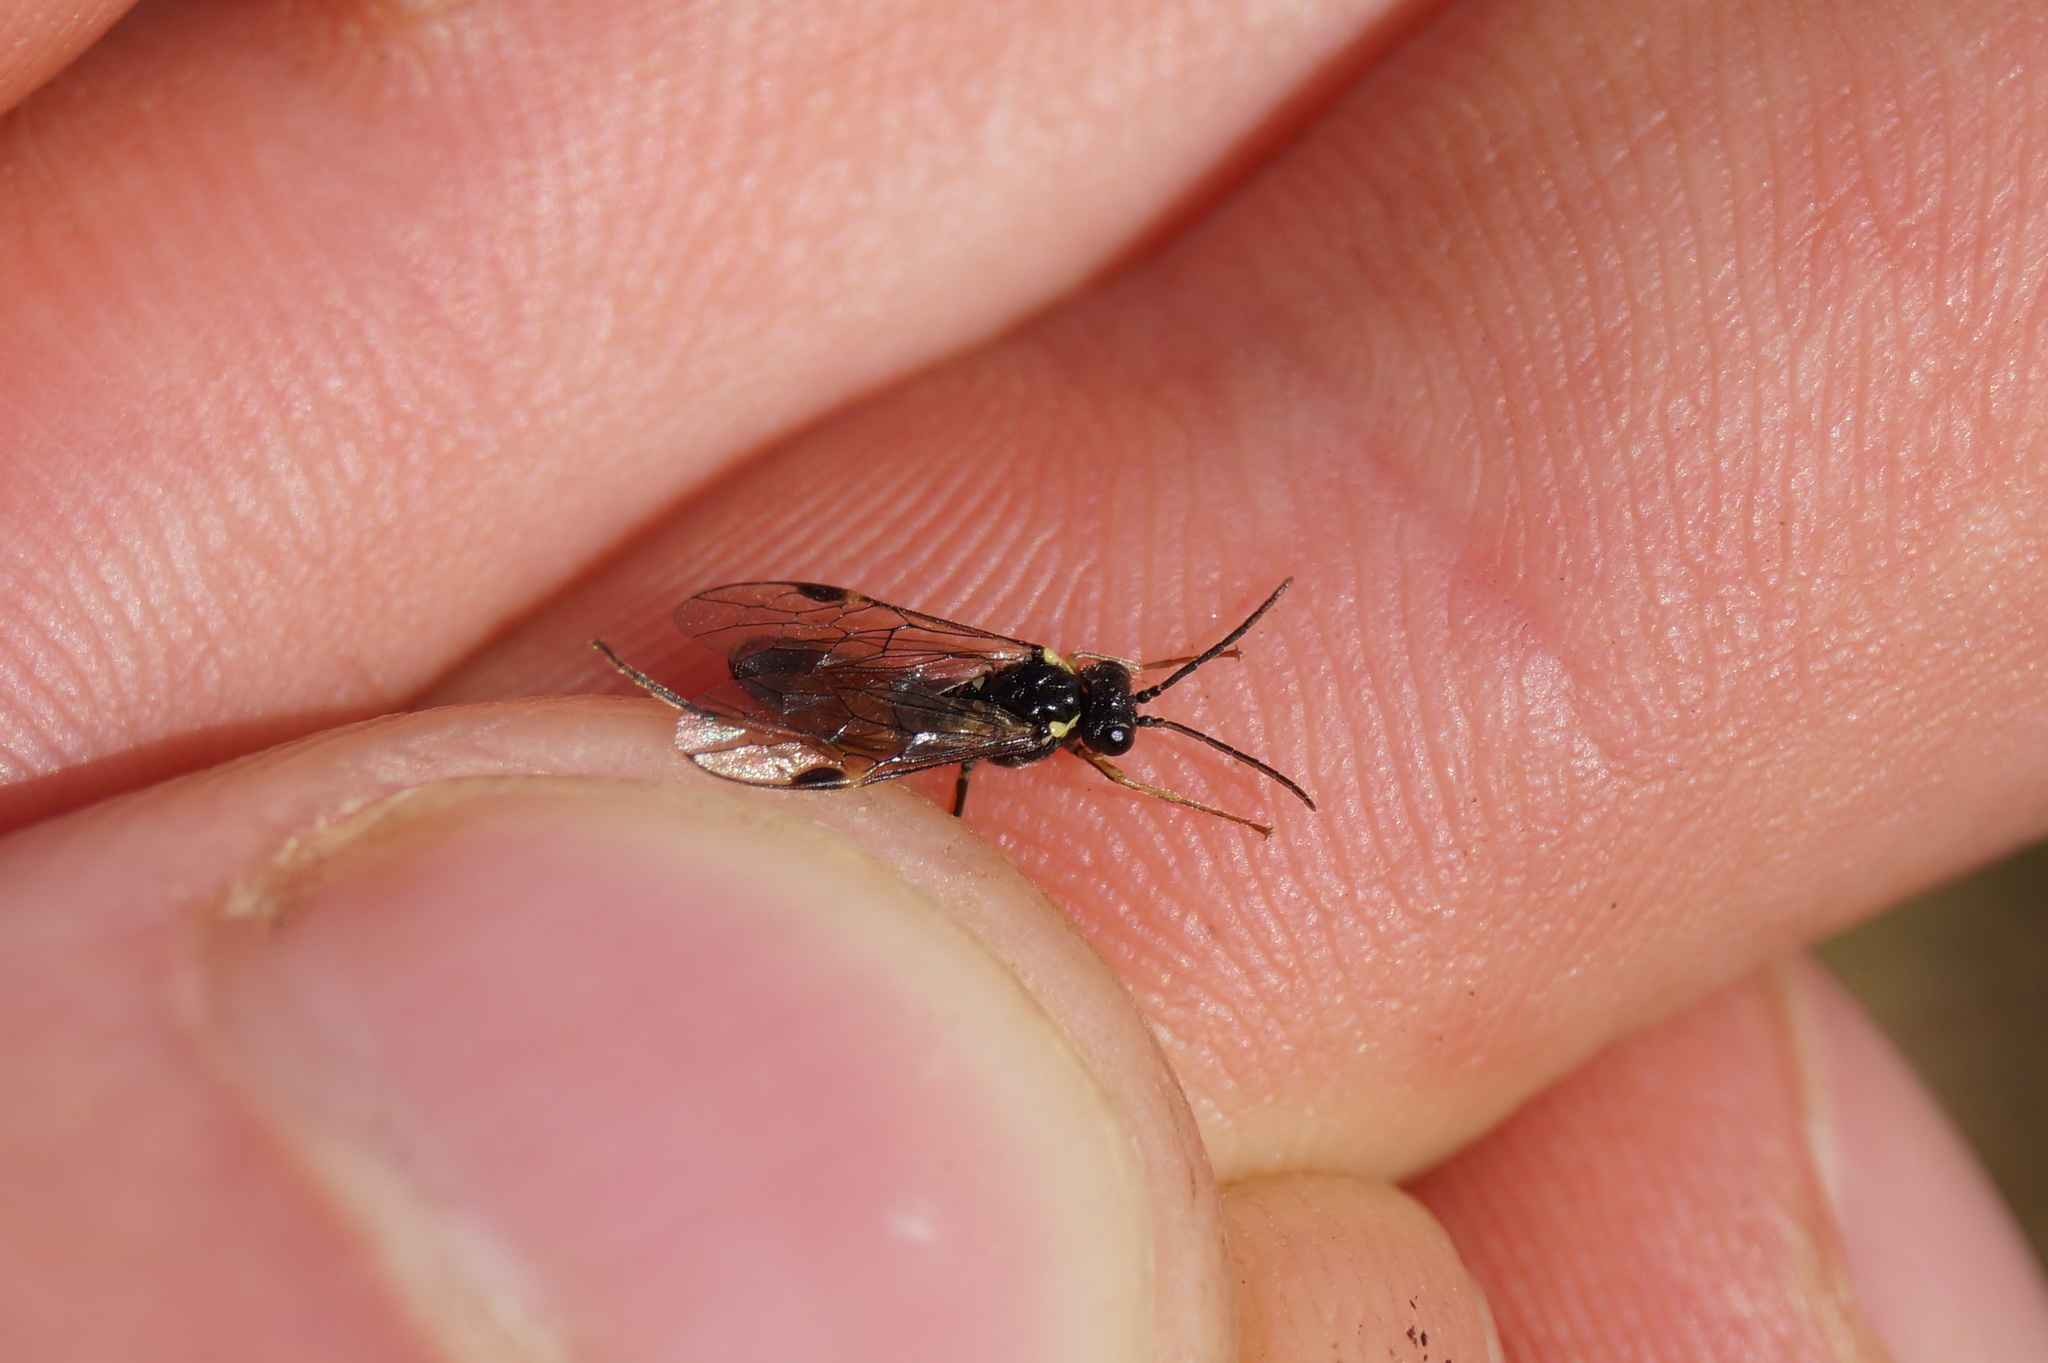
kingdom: Animalia
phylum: Arthropoda
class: Insecta
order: Hymenoptera
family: Tenthredinidae
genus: Aglaostigma
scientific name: Aglaostigma aucupariae
